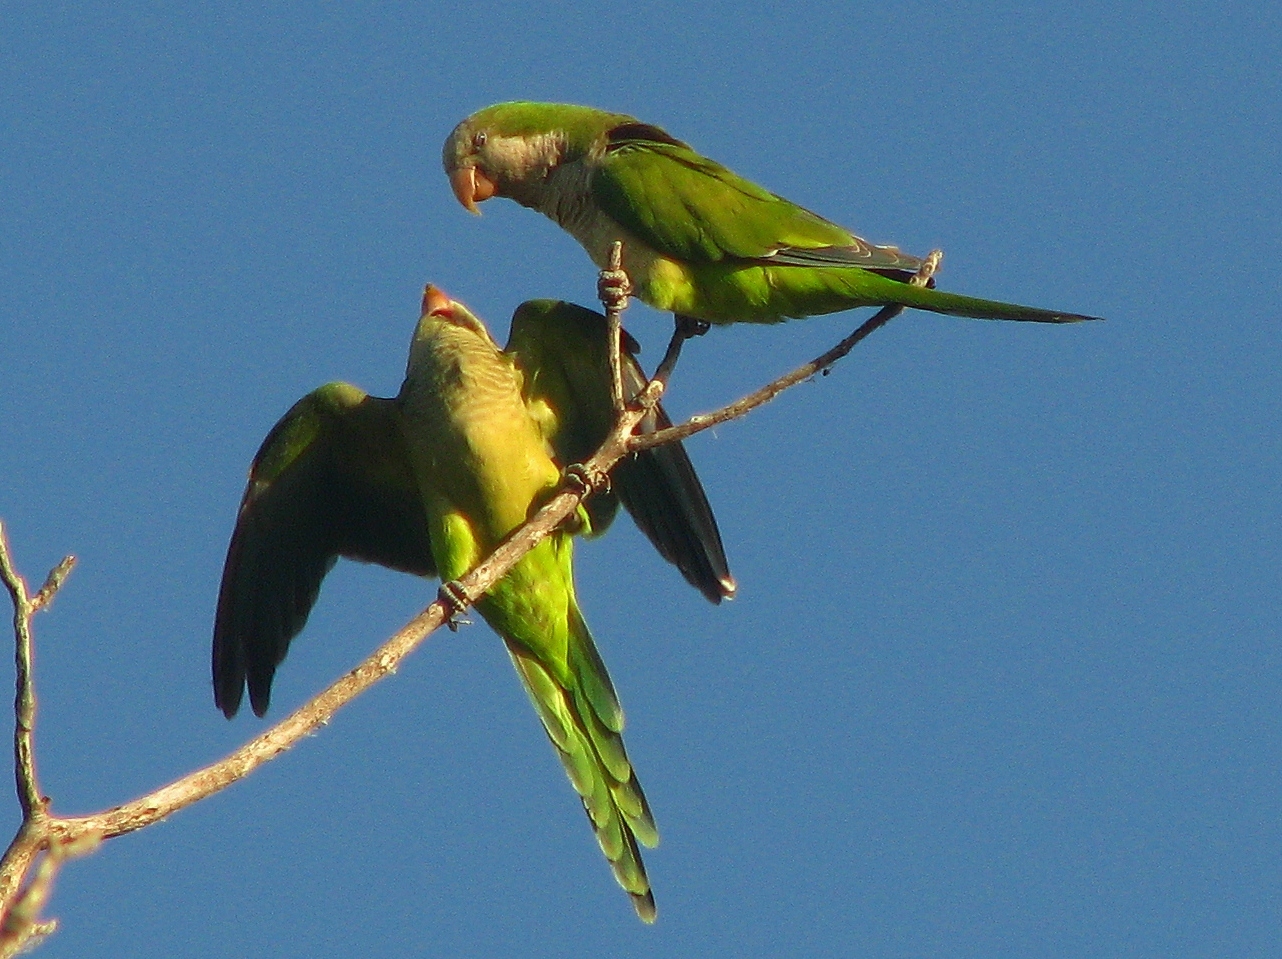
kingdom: Animalia
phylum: Chordata
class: Aves
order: Psittaciformes
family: Psittacidae
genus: Myiopsitta
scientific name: Myiopsitta monachus
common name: Monk parakeet
